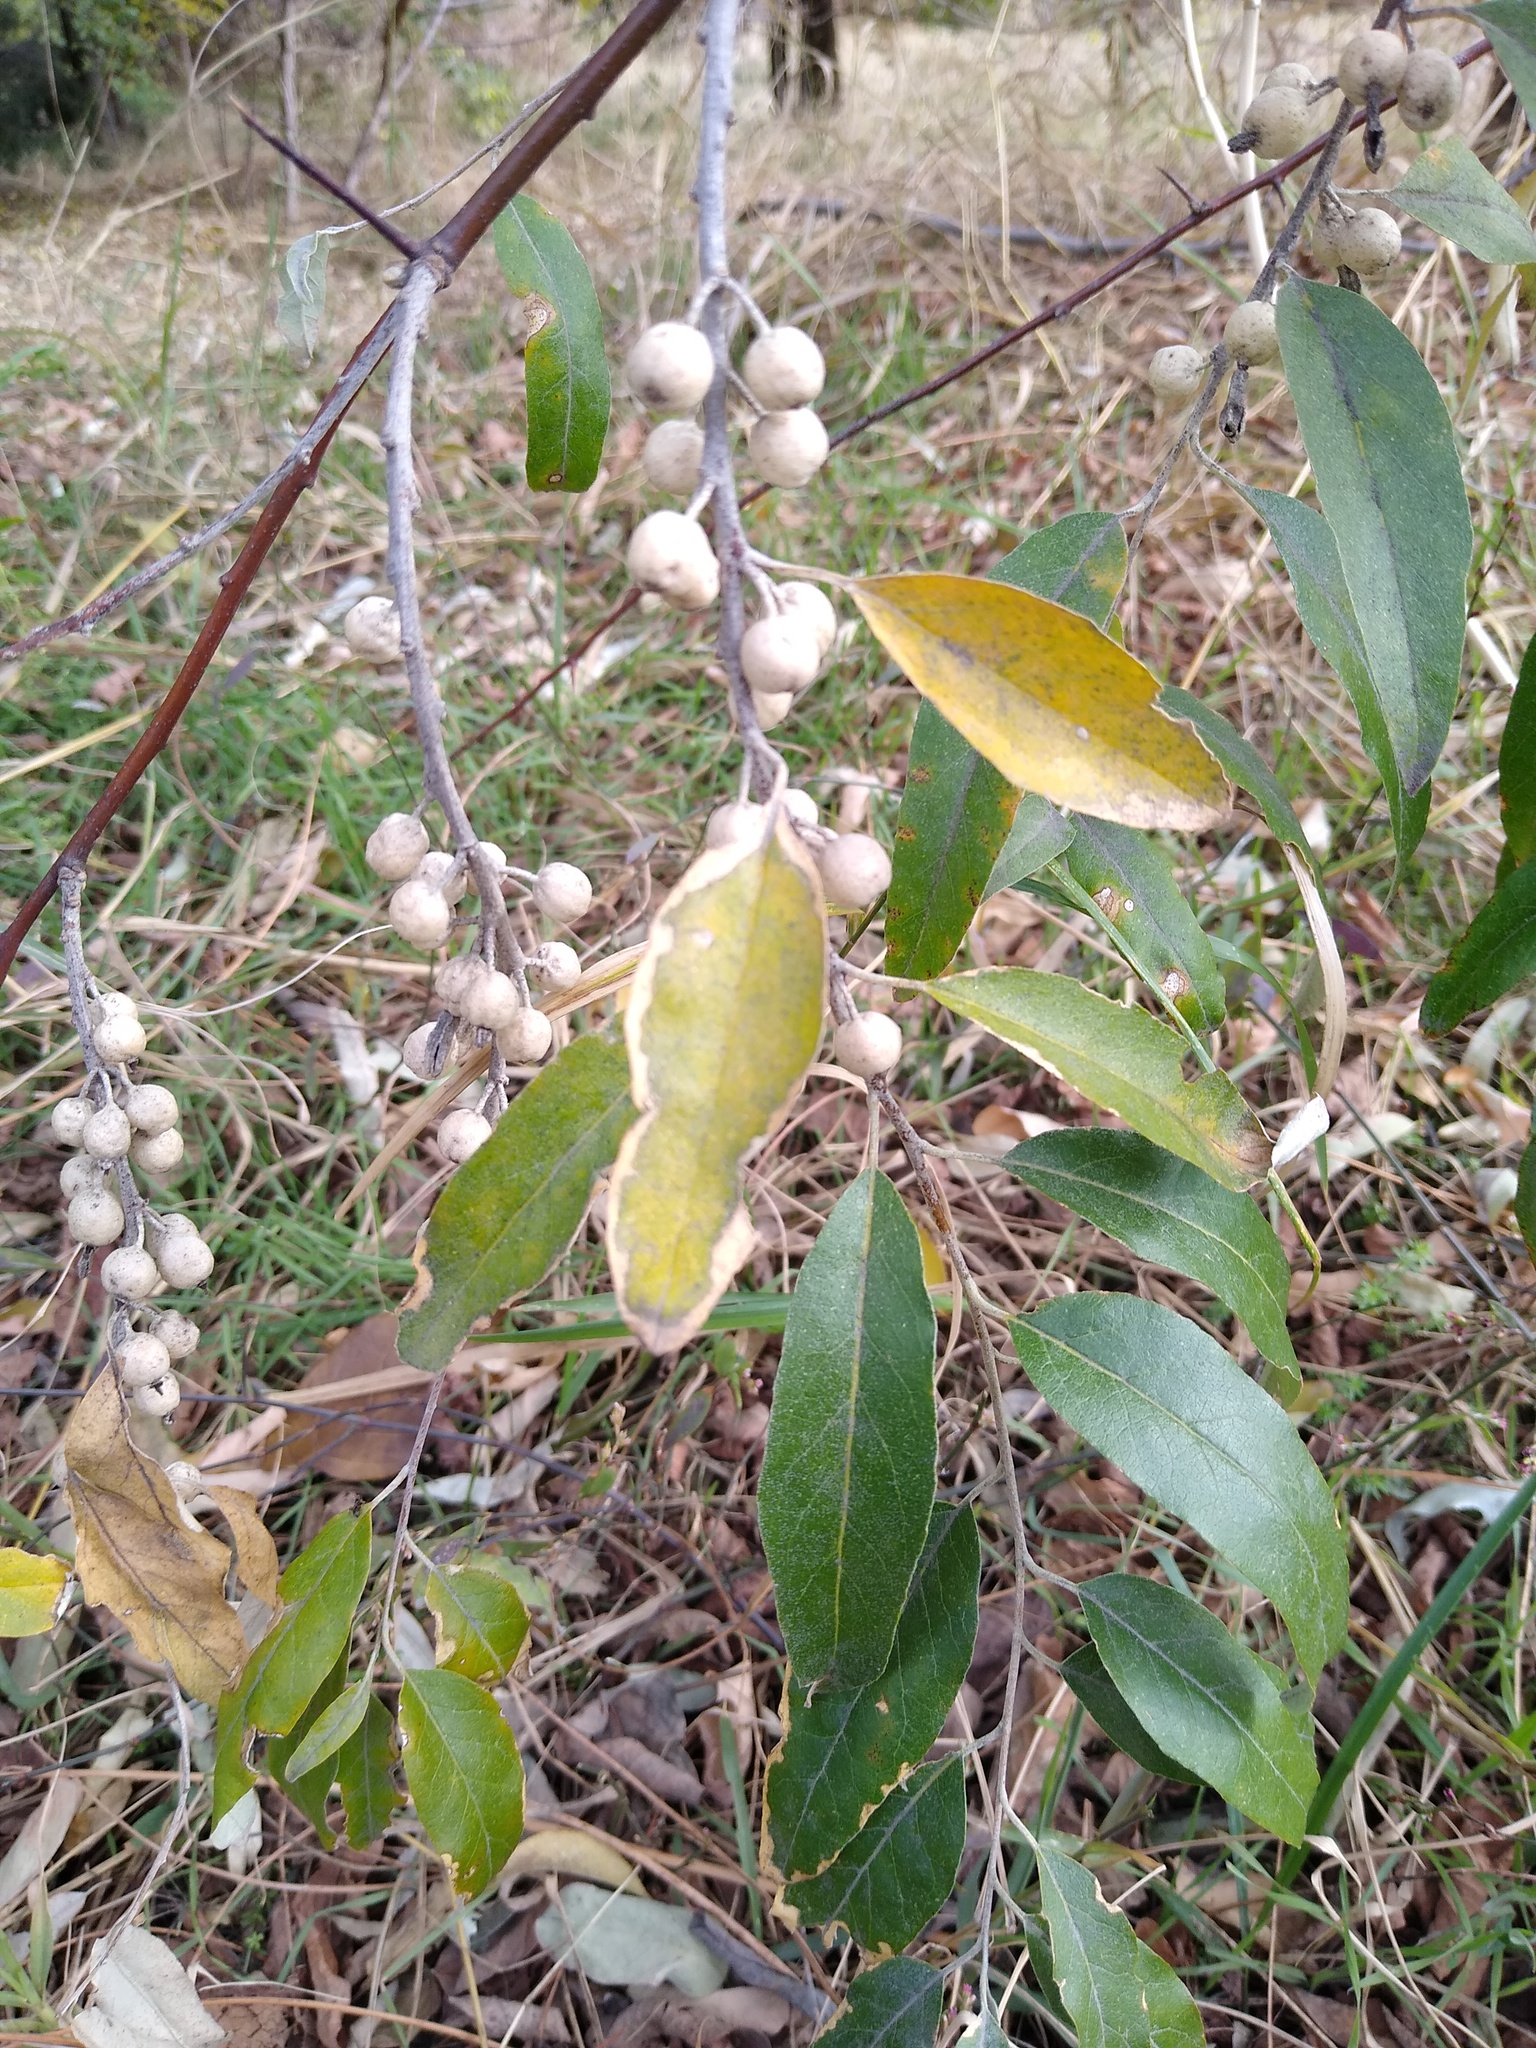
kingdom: Plantae
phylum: Tracheophyta
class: Magnoliopsida
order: Rosales
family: Elaeagnaceae
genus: Elaeagnus
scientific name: Elaeagnus angustifolia
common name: Russian olive
